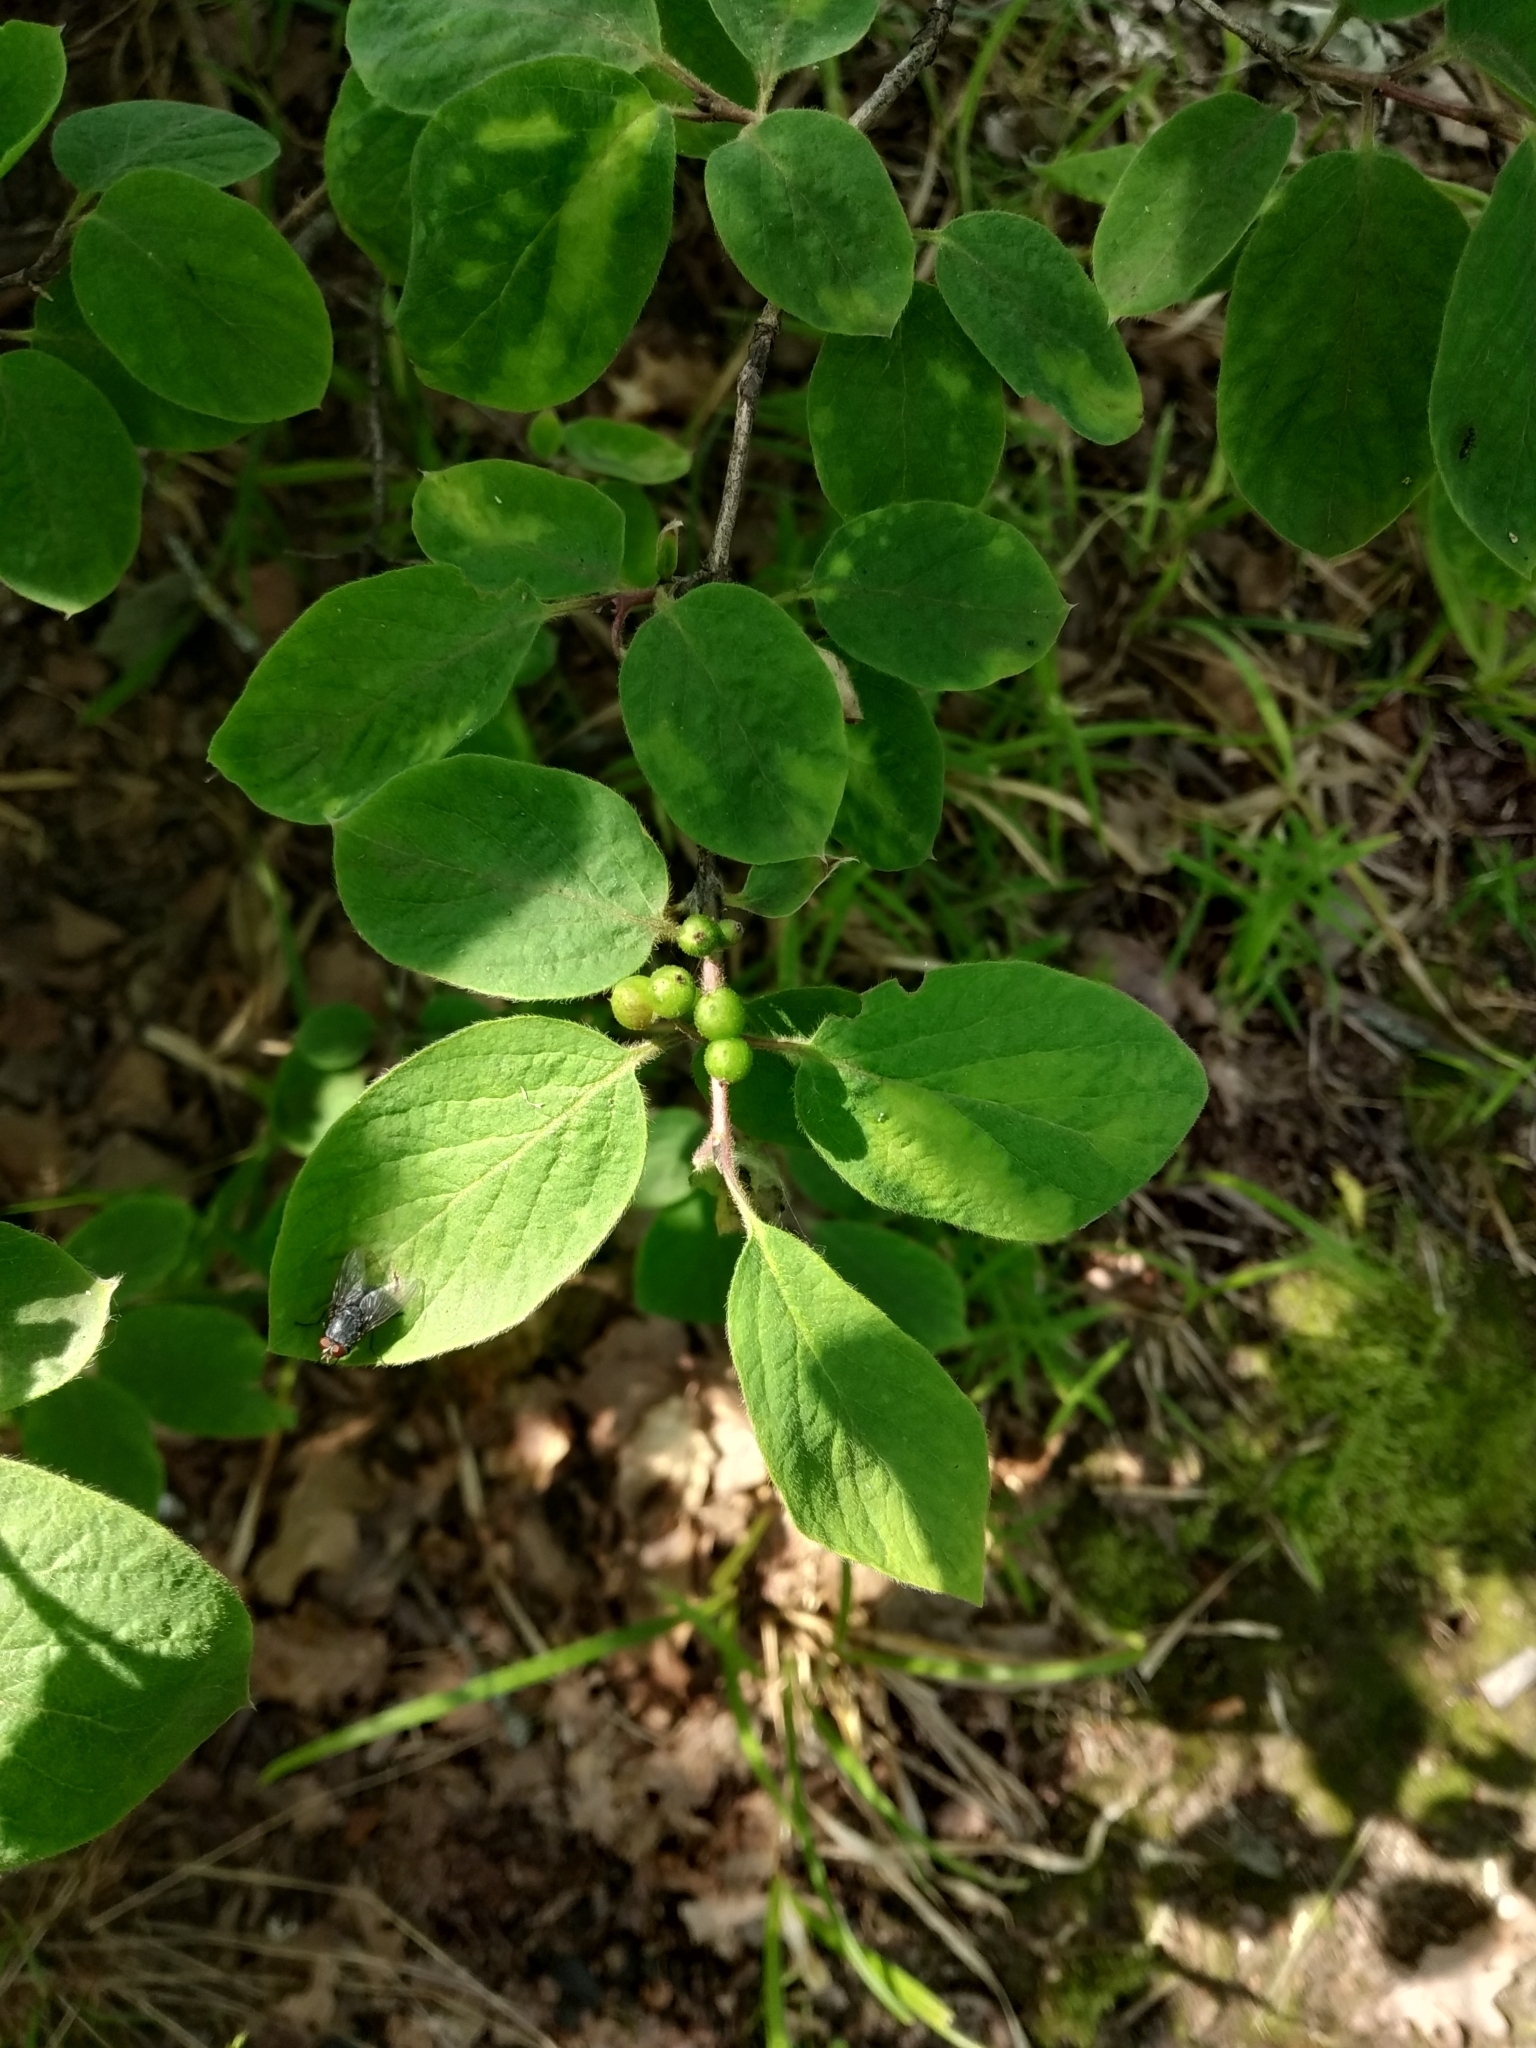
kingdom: Plantae
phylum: Tracheophyta
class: Magnoliopsida
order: Dipsacales
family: Caprifoliaceae
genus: Lonicera
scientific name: Lonicera xylosteum
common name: Fly honeysuckle
